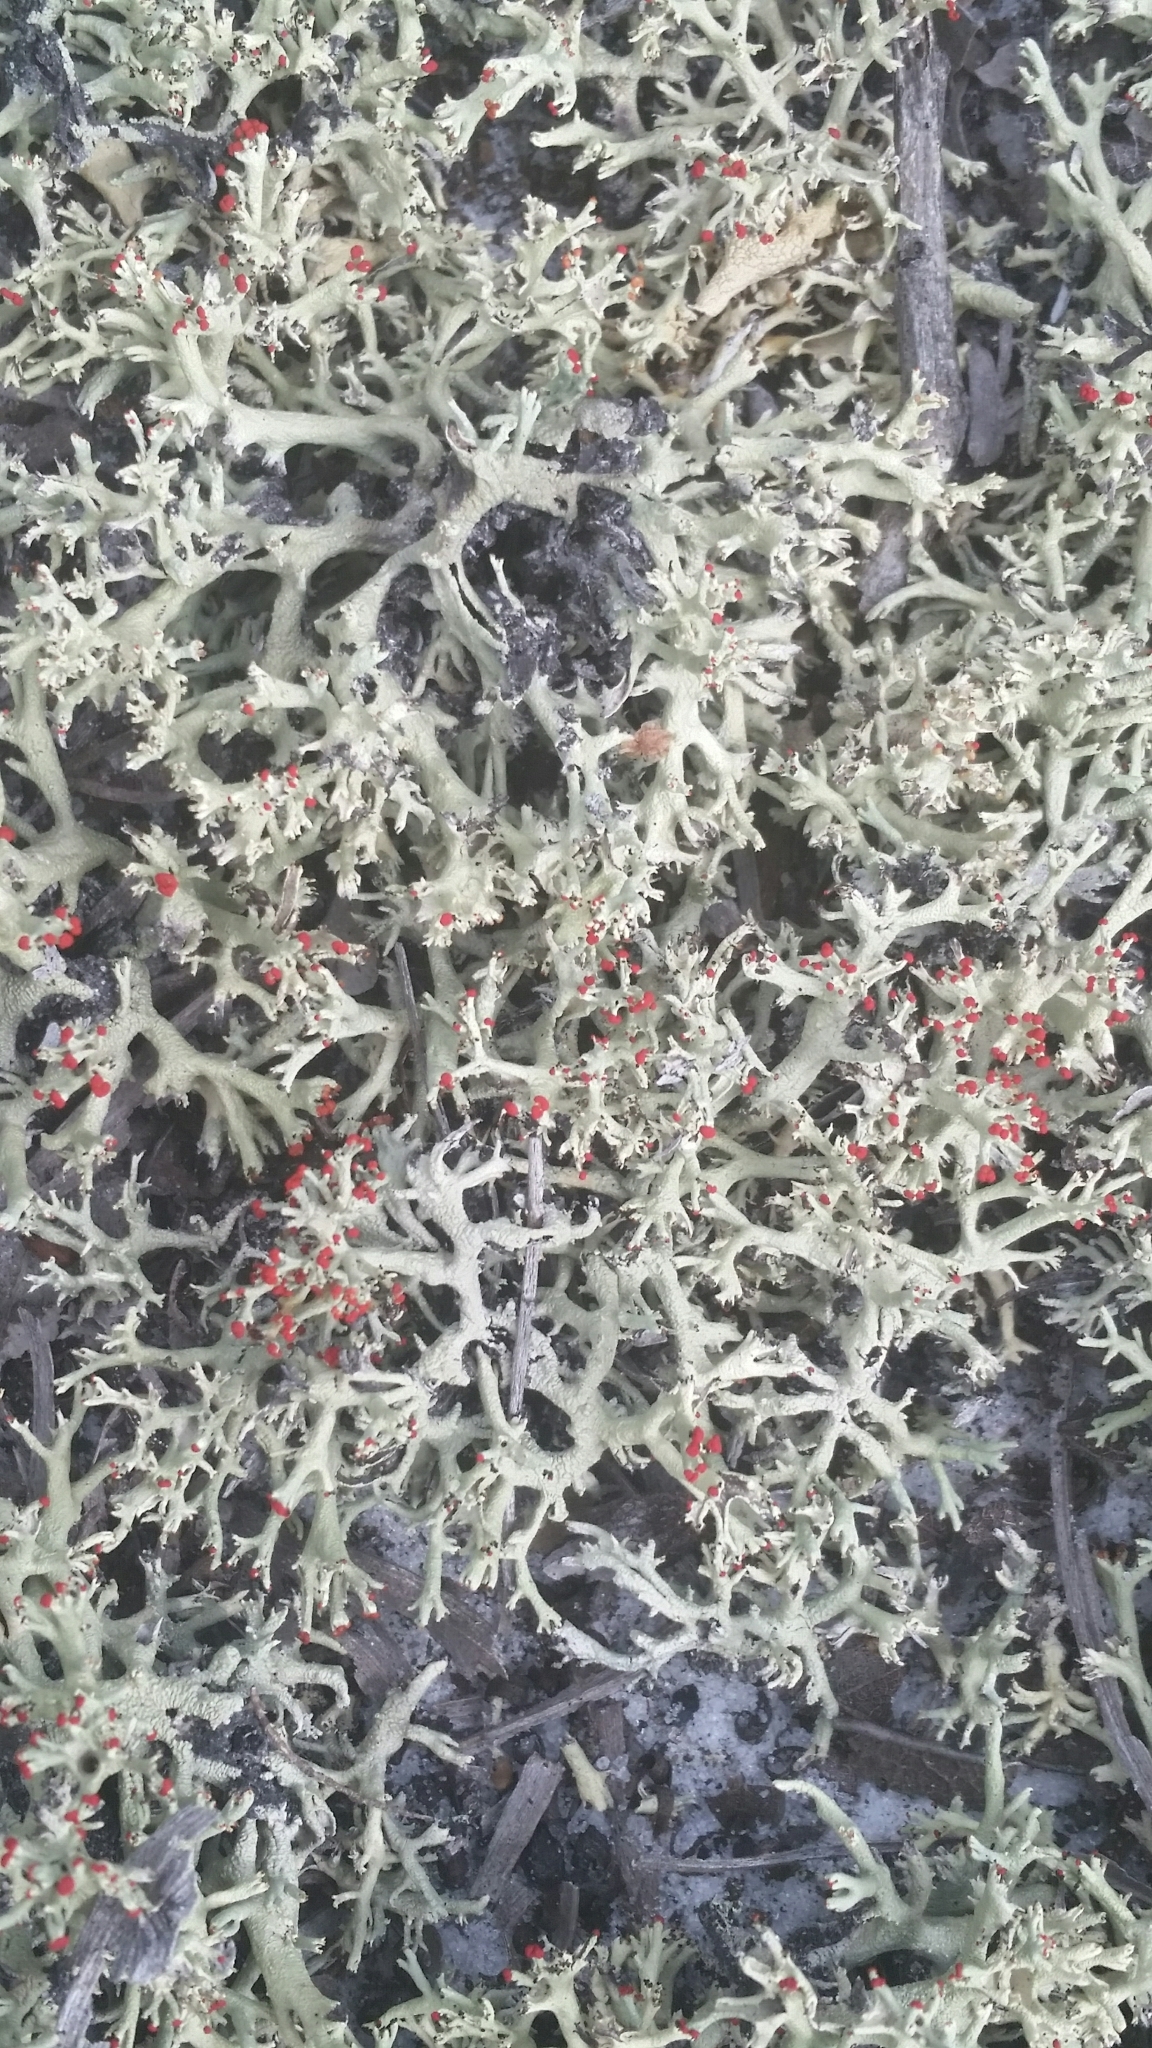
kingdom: Fungi
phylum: Ascomycota
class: Lecanoromycetes
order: Lecanorales
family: Cladoniaceae
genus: Cladonia
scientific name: Cladonia leporina
